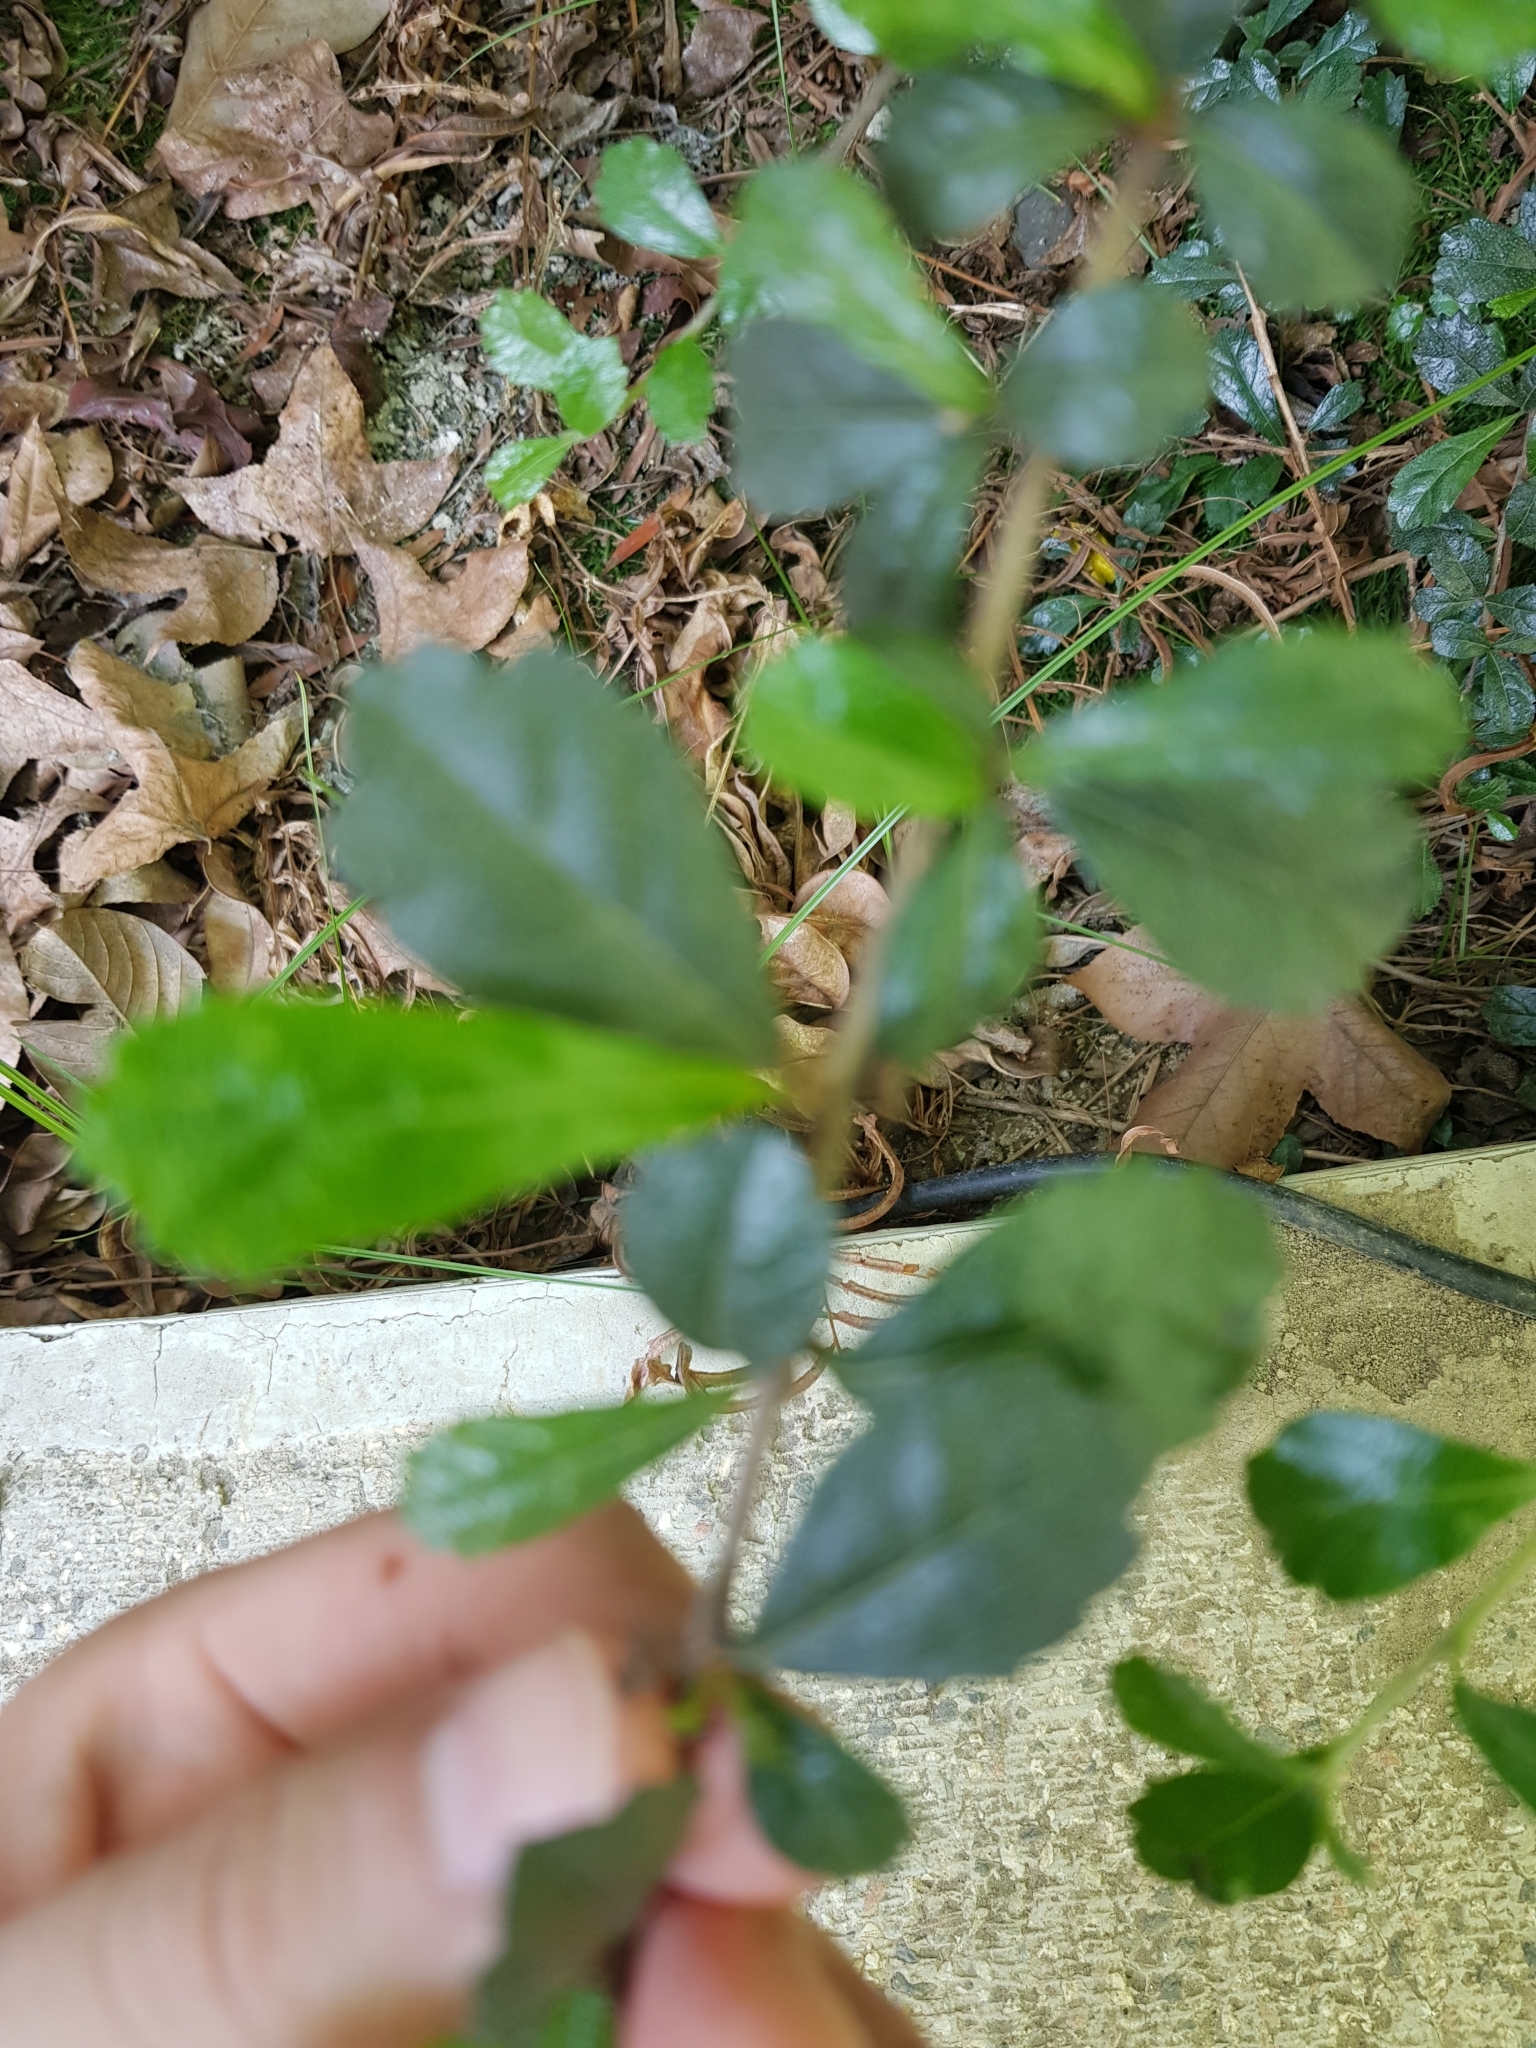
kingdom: Plantae
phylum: Tracheophyta
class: Magnoliopsida
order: Boraginales
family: Ehretiaceae
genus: Ehretia
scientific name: Ehretia microphylla
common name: Fukien-tea
